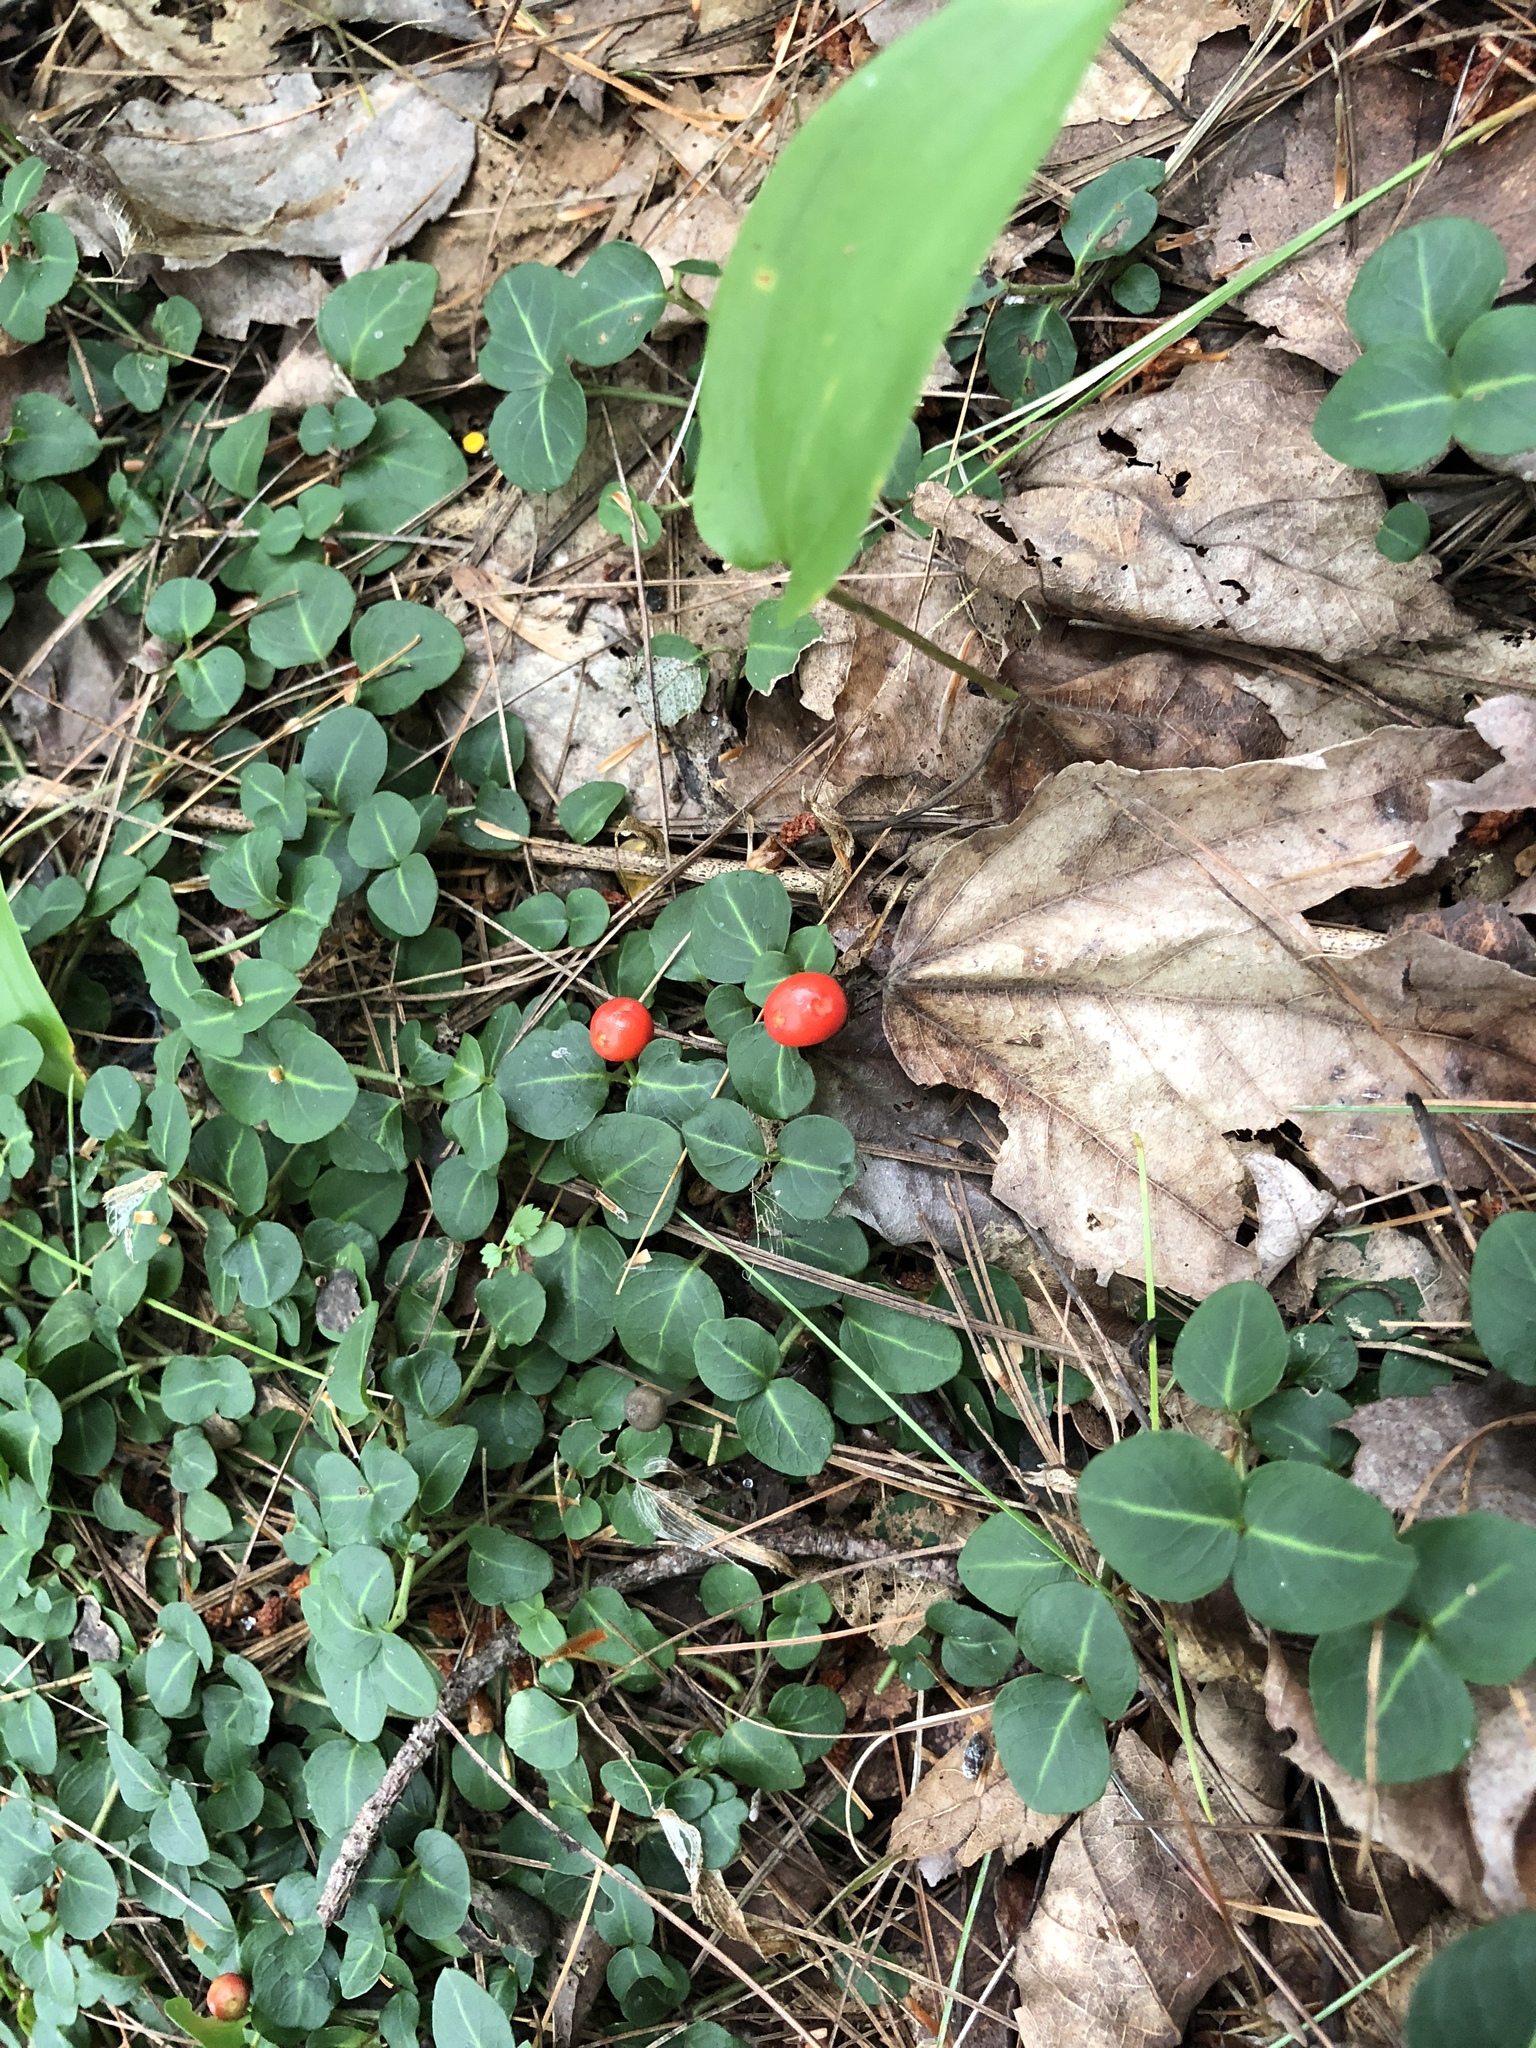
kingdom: Plantae
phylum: Tracheophyta
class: Magnoliopsida
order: Gentianales
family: Rubiaceae
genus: Mitchella
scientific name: Mitchella repens
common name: Partridge-berry
